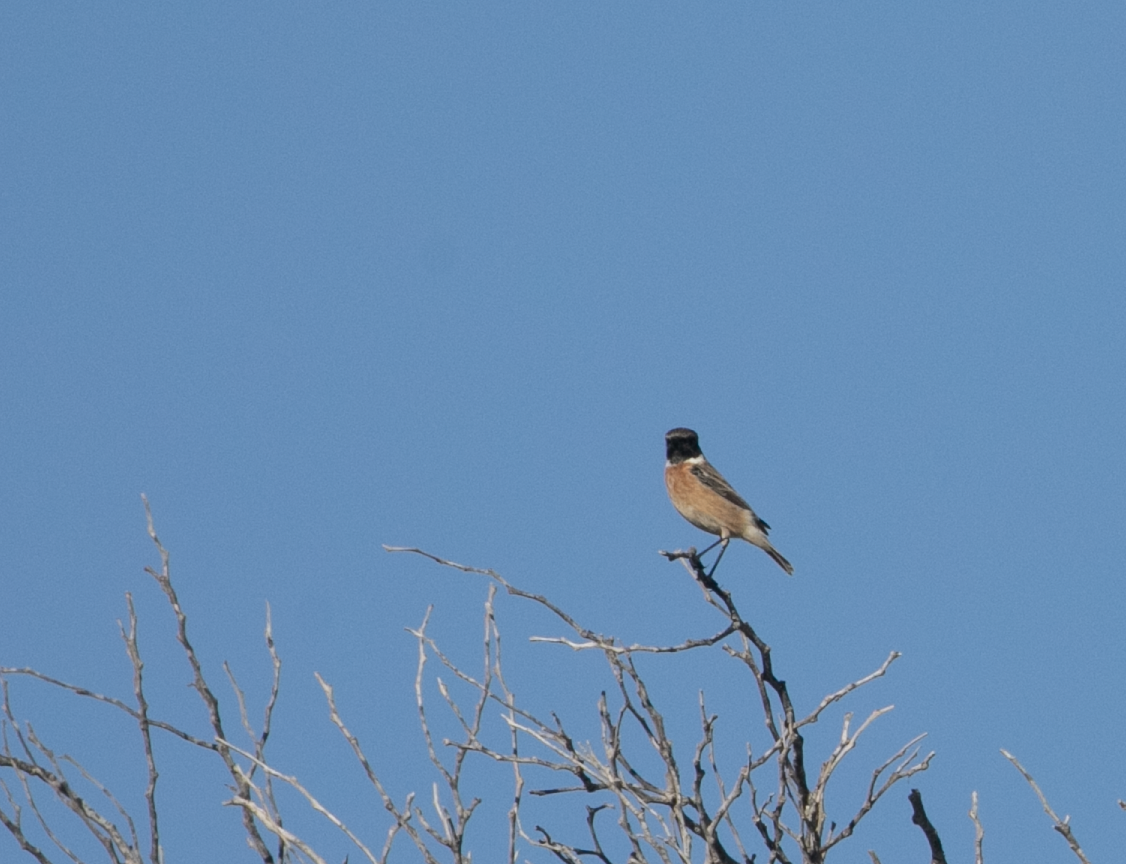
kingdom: Animalia
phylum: Chordata
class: Aves
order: Passeriformes
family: Muscicapidae
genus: Saxicola
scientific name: Saxicola rubicola
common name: European stonechat
